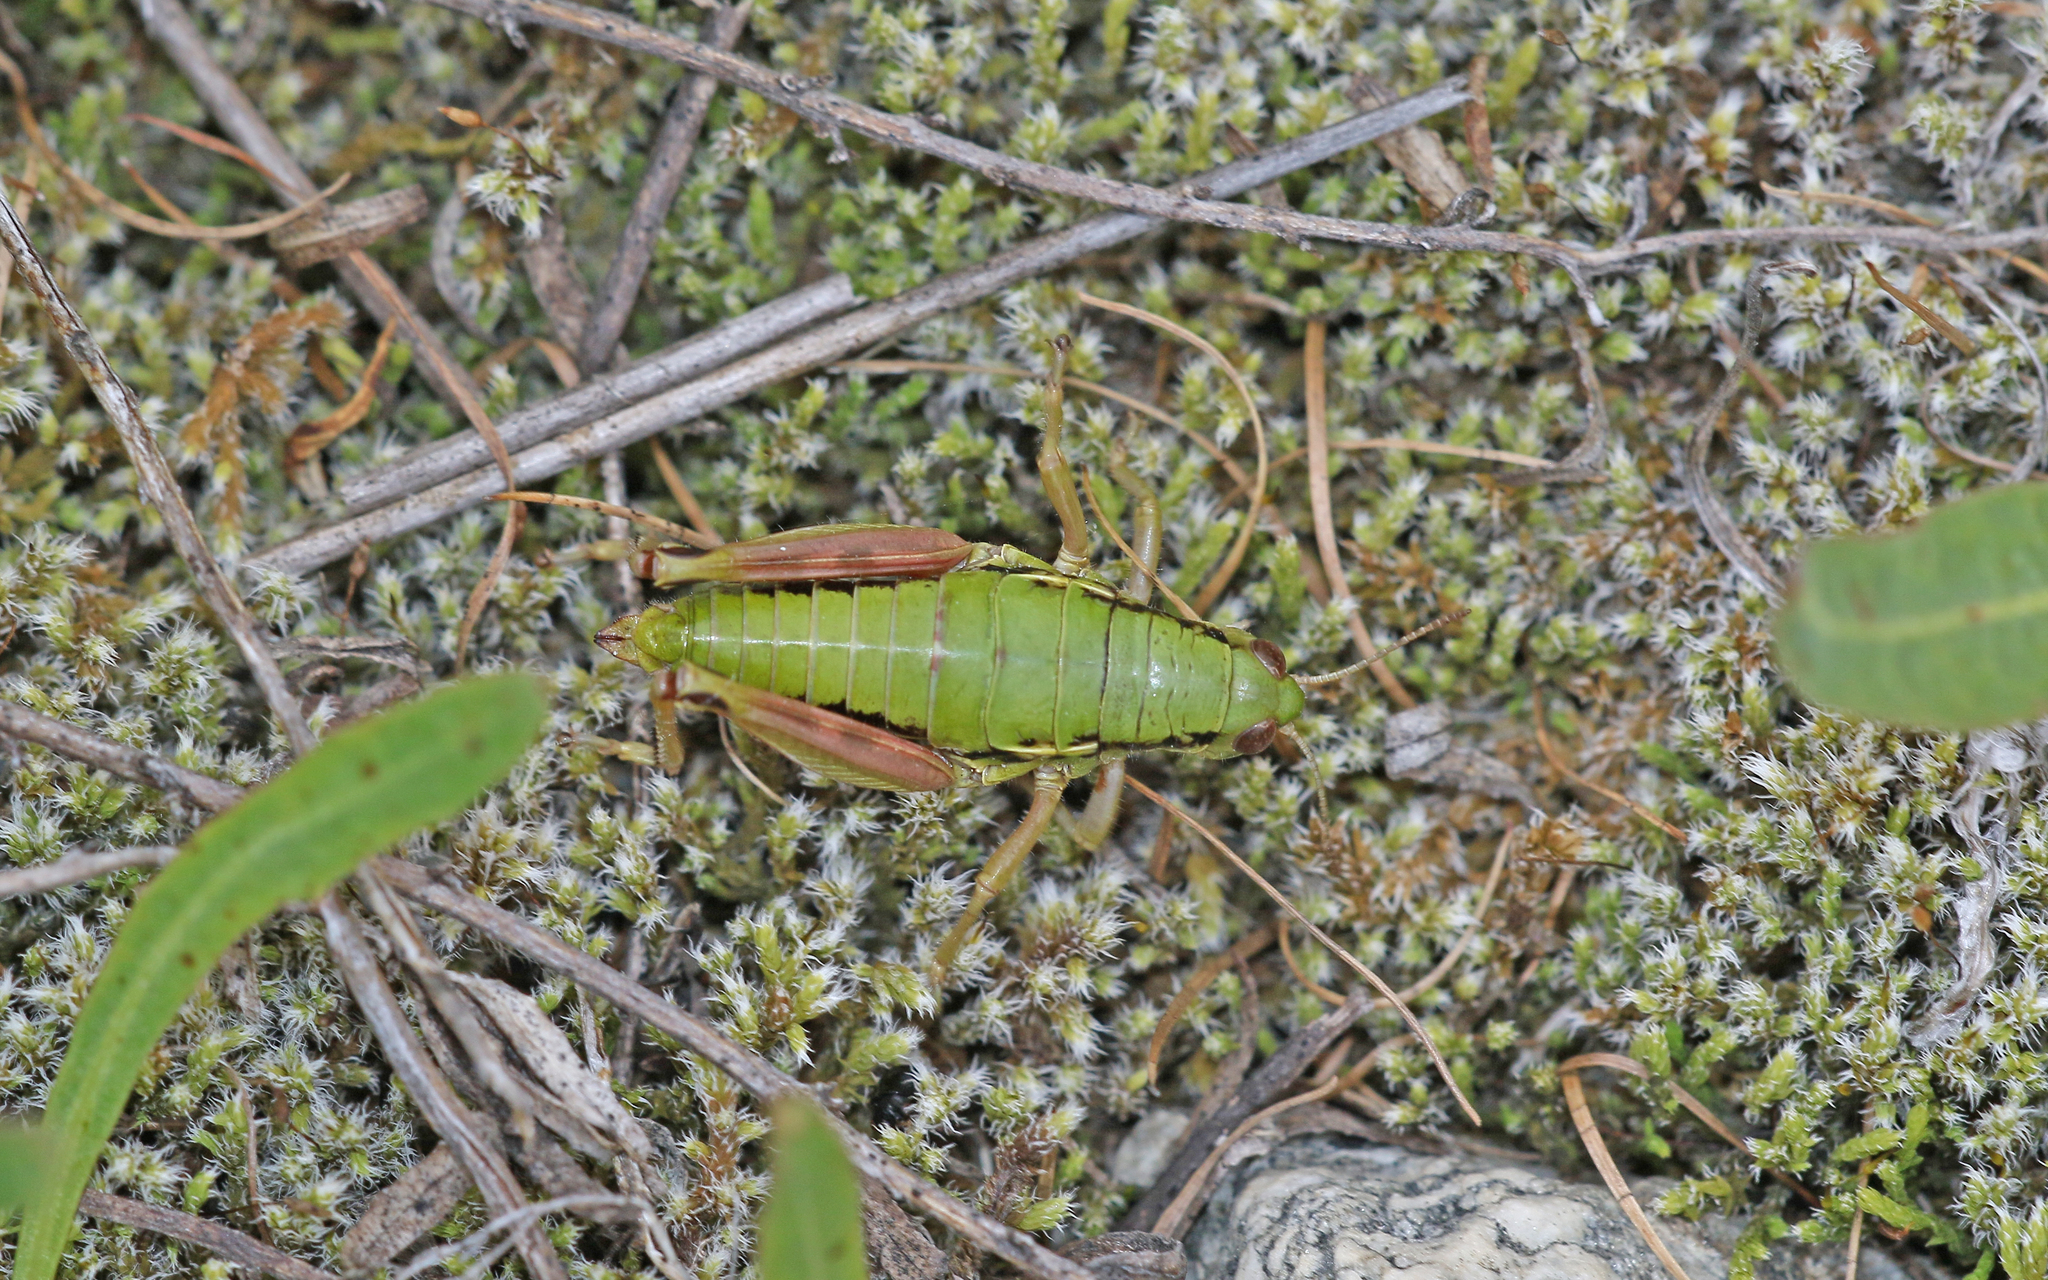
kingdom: Animalia
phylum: Arthropoda
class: Insecta
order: Orthoptera
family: Acrididae
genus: Epipodisma
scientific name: Epipodisma pedemontana
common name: Piedmont mountain grasshopper
